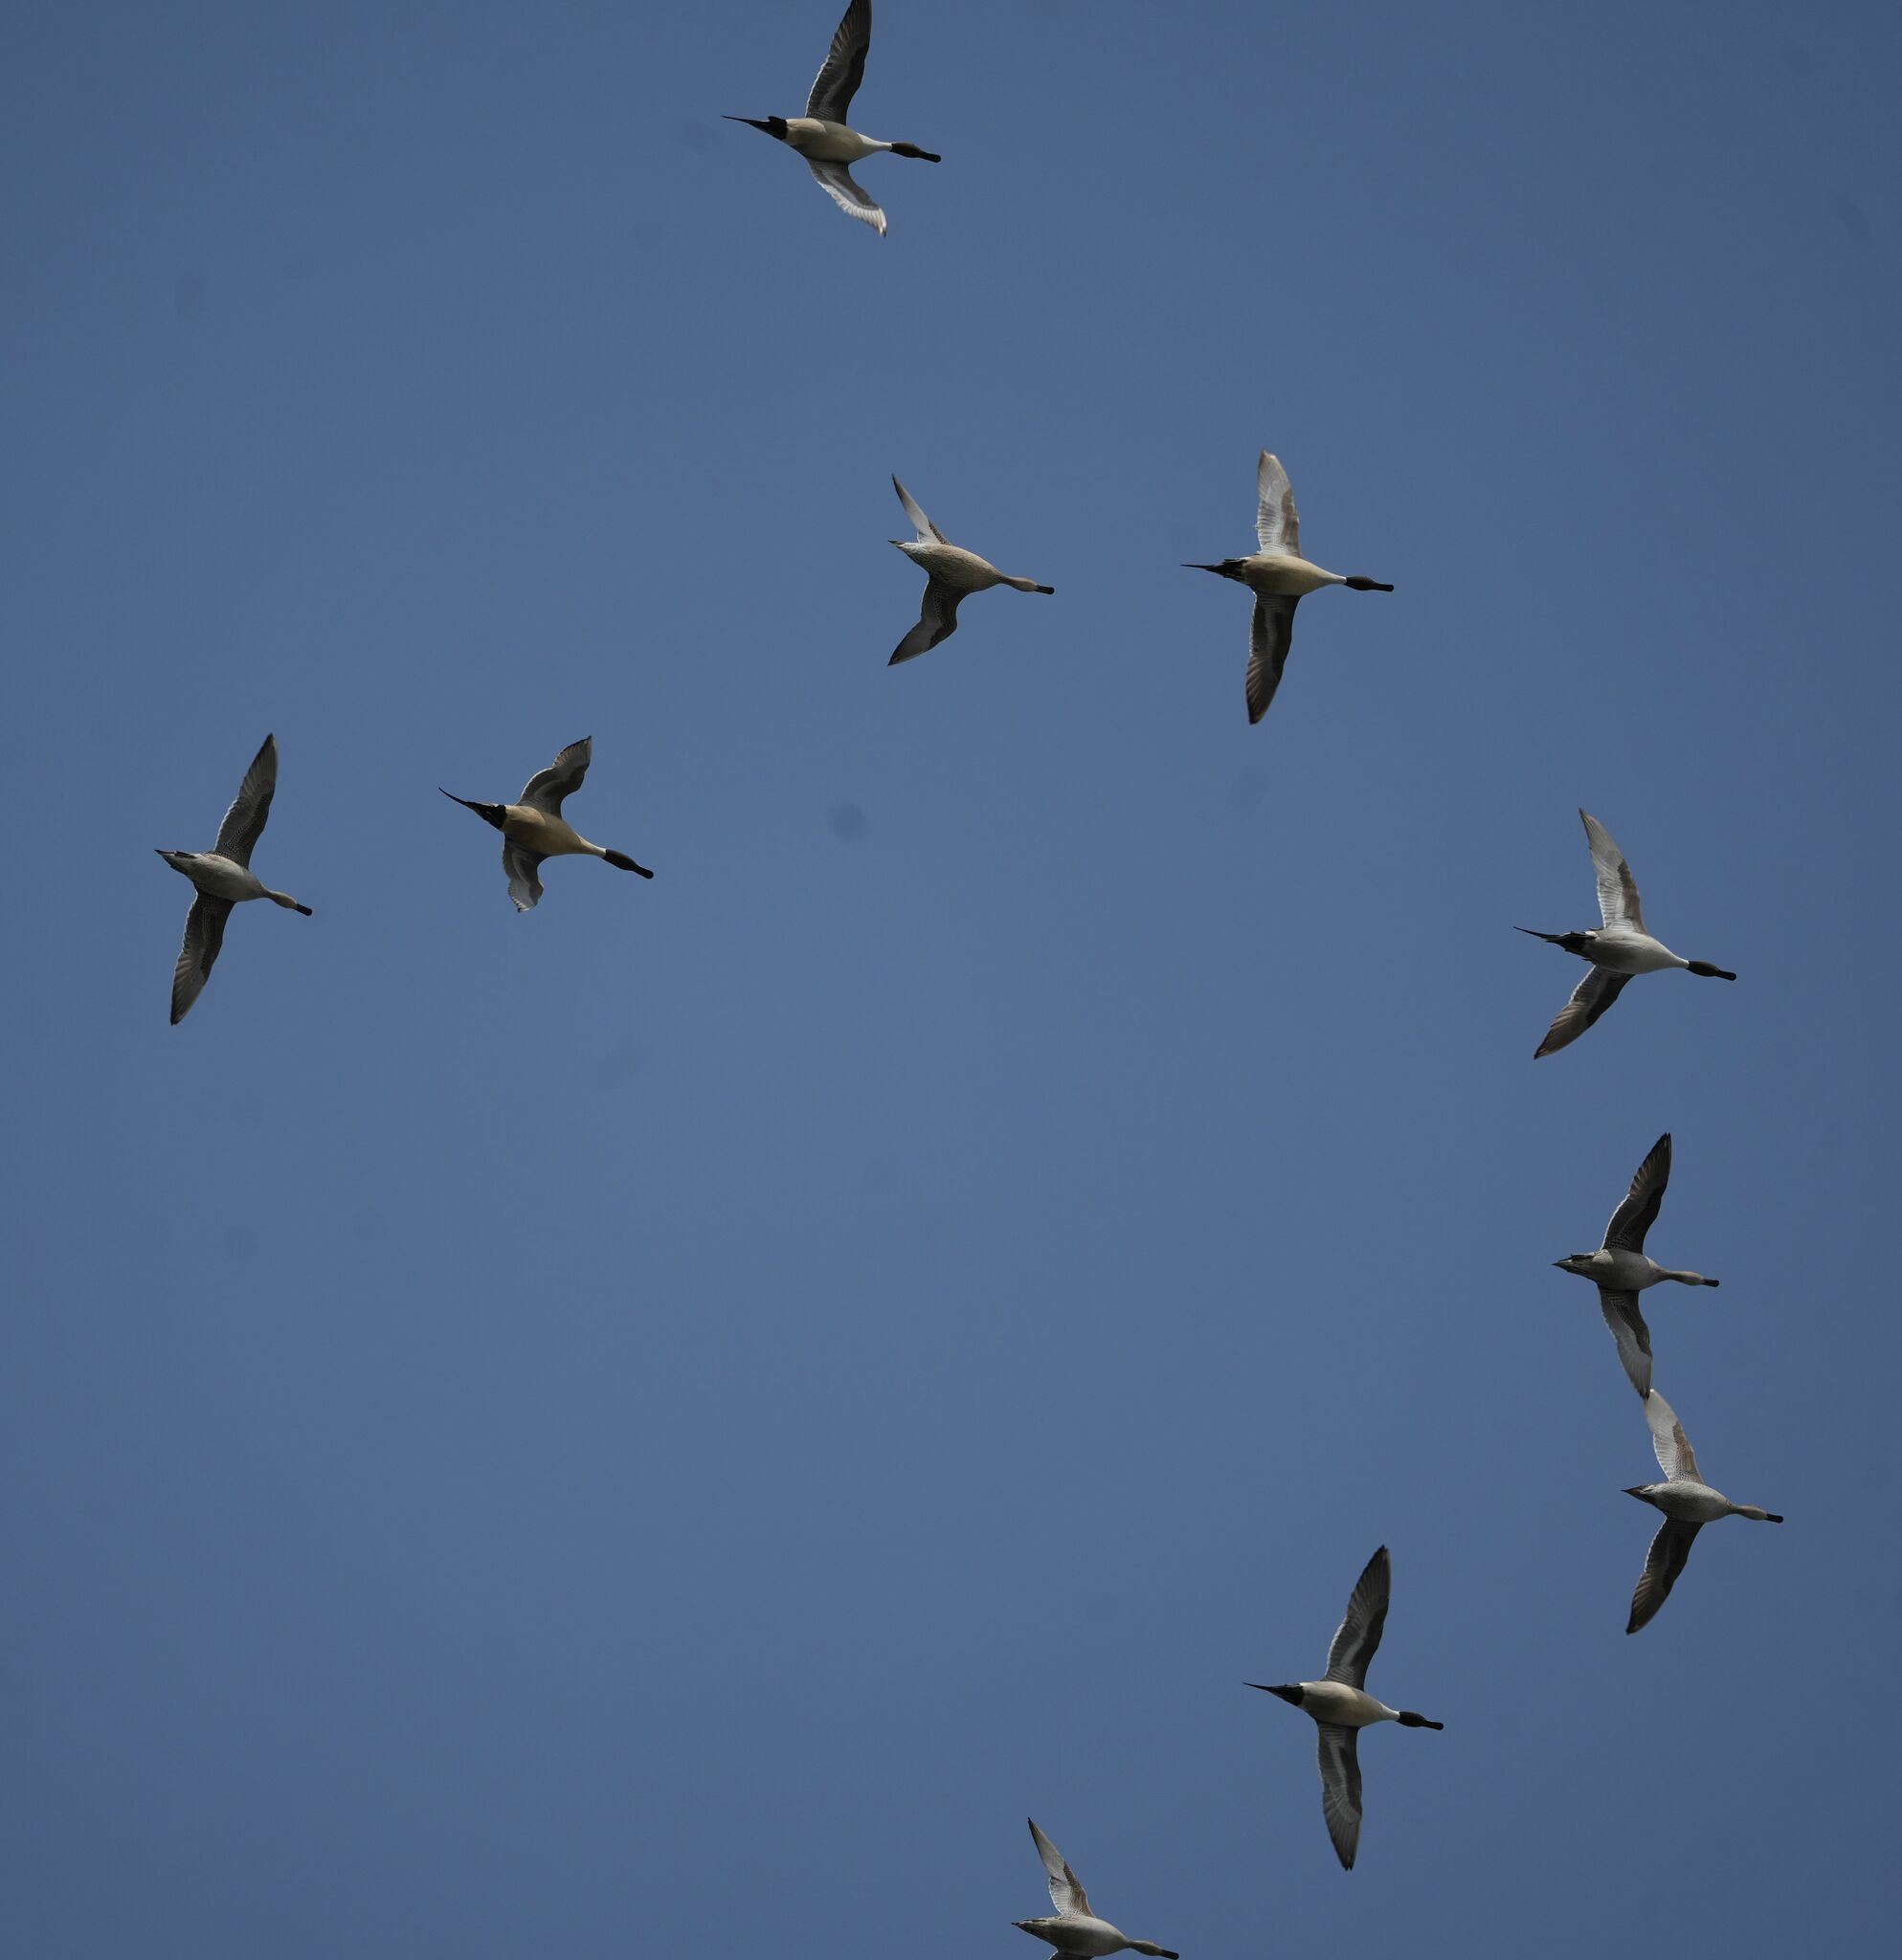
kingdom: Animalia
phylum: Chordata
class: Aves
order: Anseriformes
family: Anatidae
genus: Anas
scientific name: Anas acuta
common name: Northern pintail
